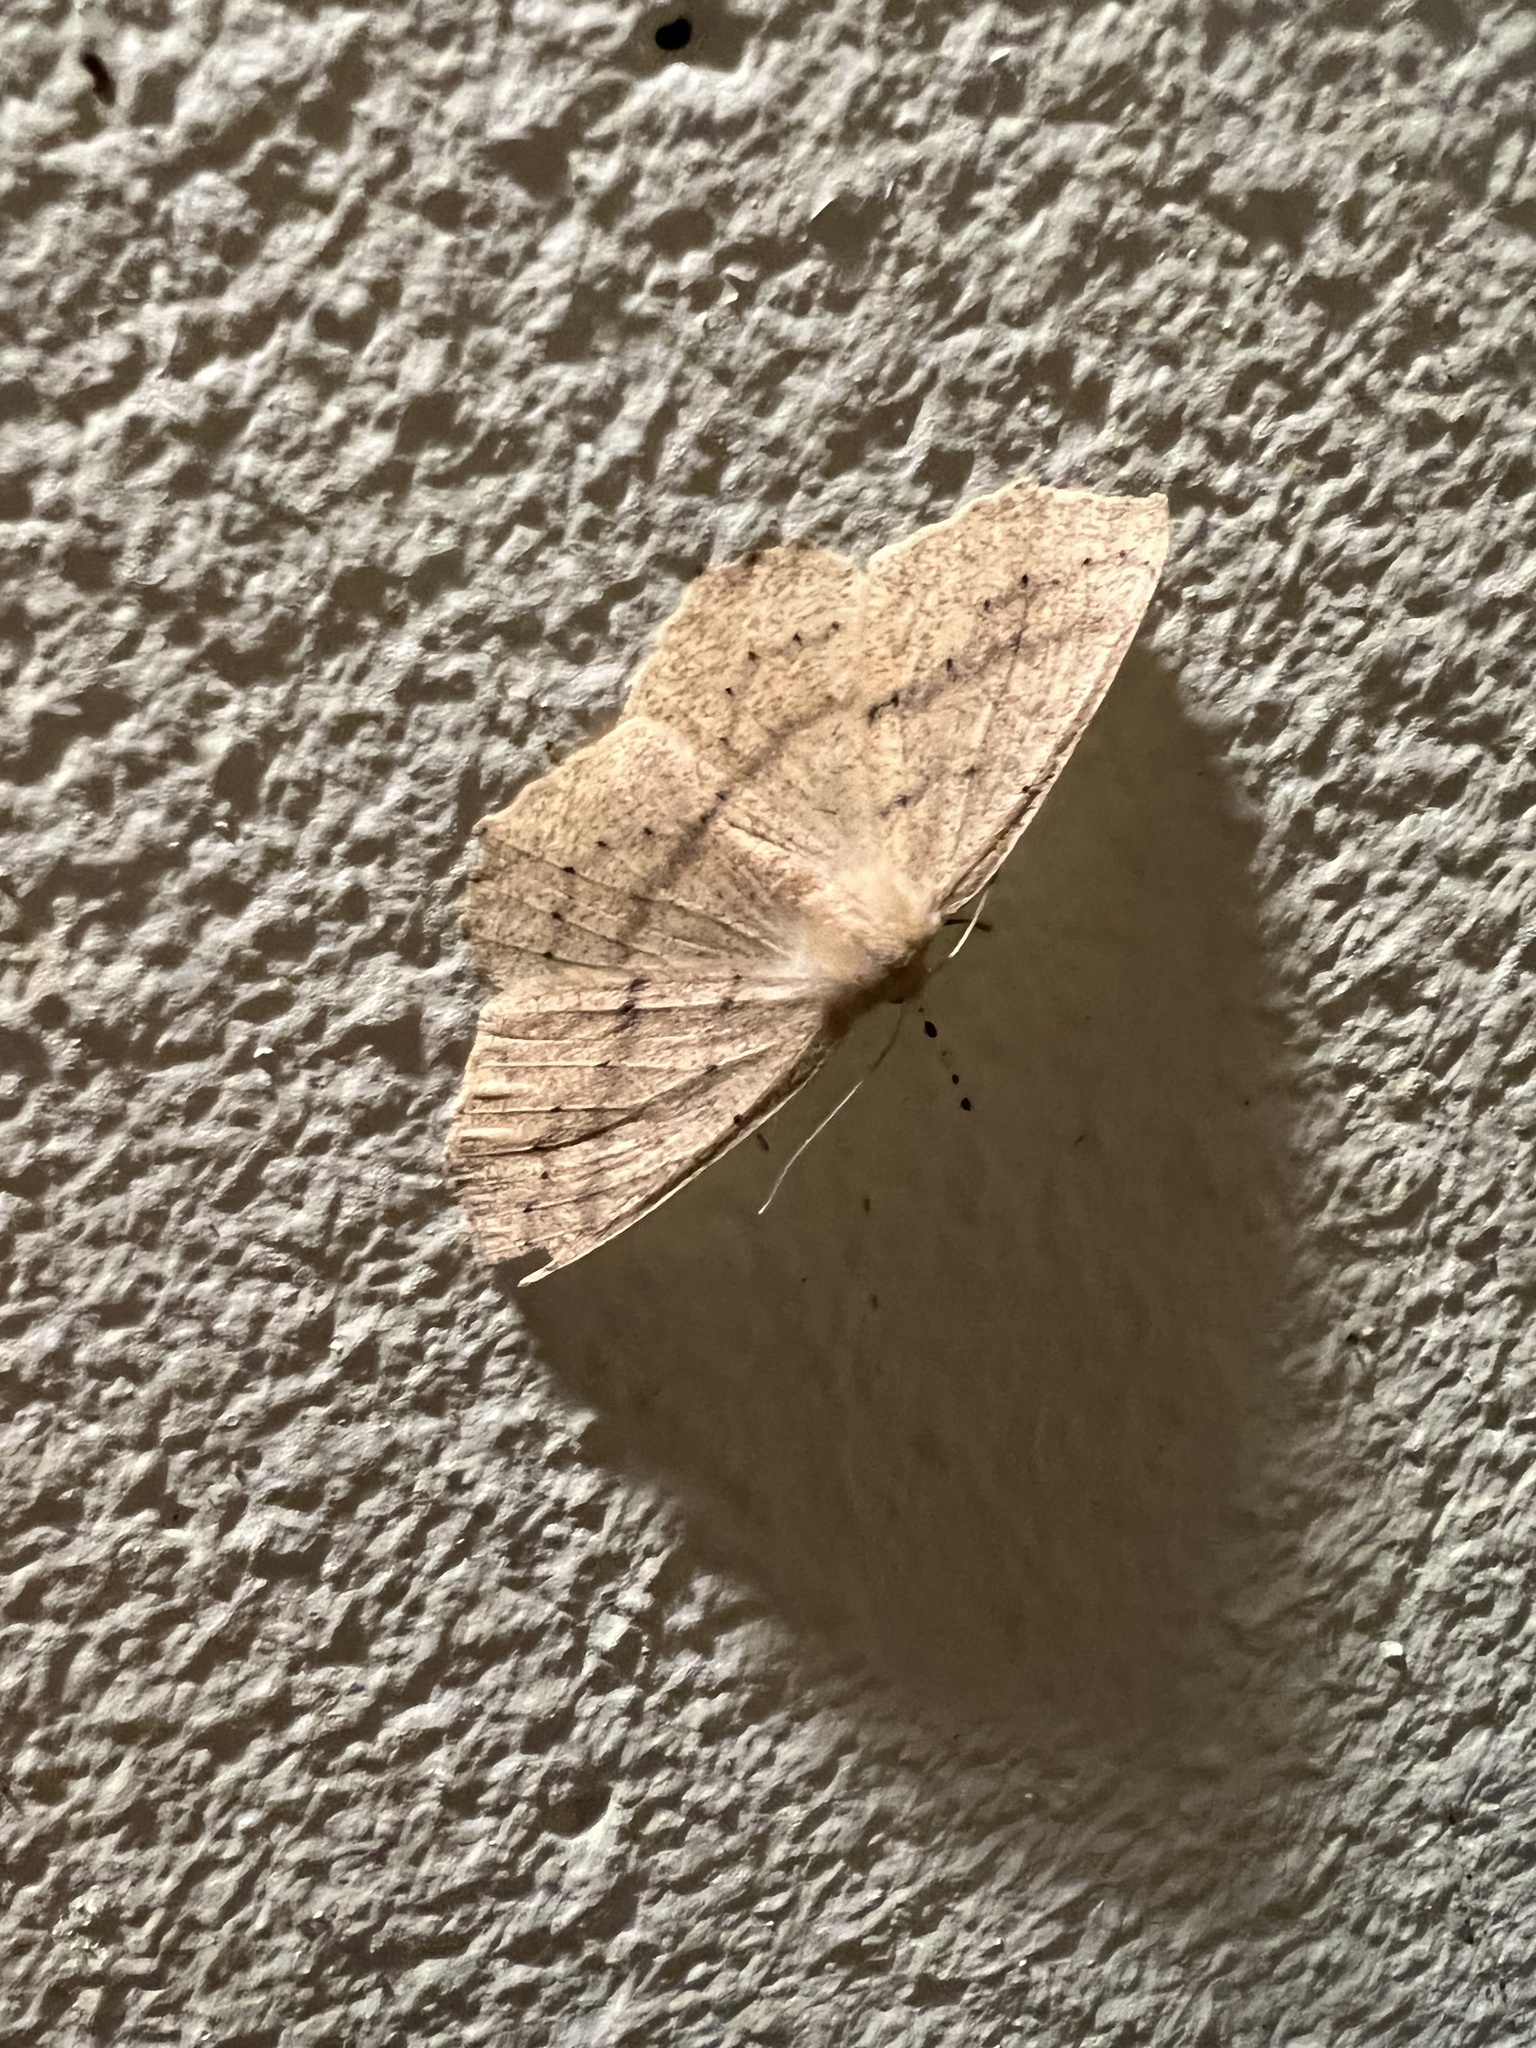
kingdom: Animalia
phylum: Arthropoda
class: Insecta
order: Lepidoptera
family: Geometridae
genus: Sabulodes
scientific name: Sabulodes aegrotata
